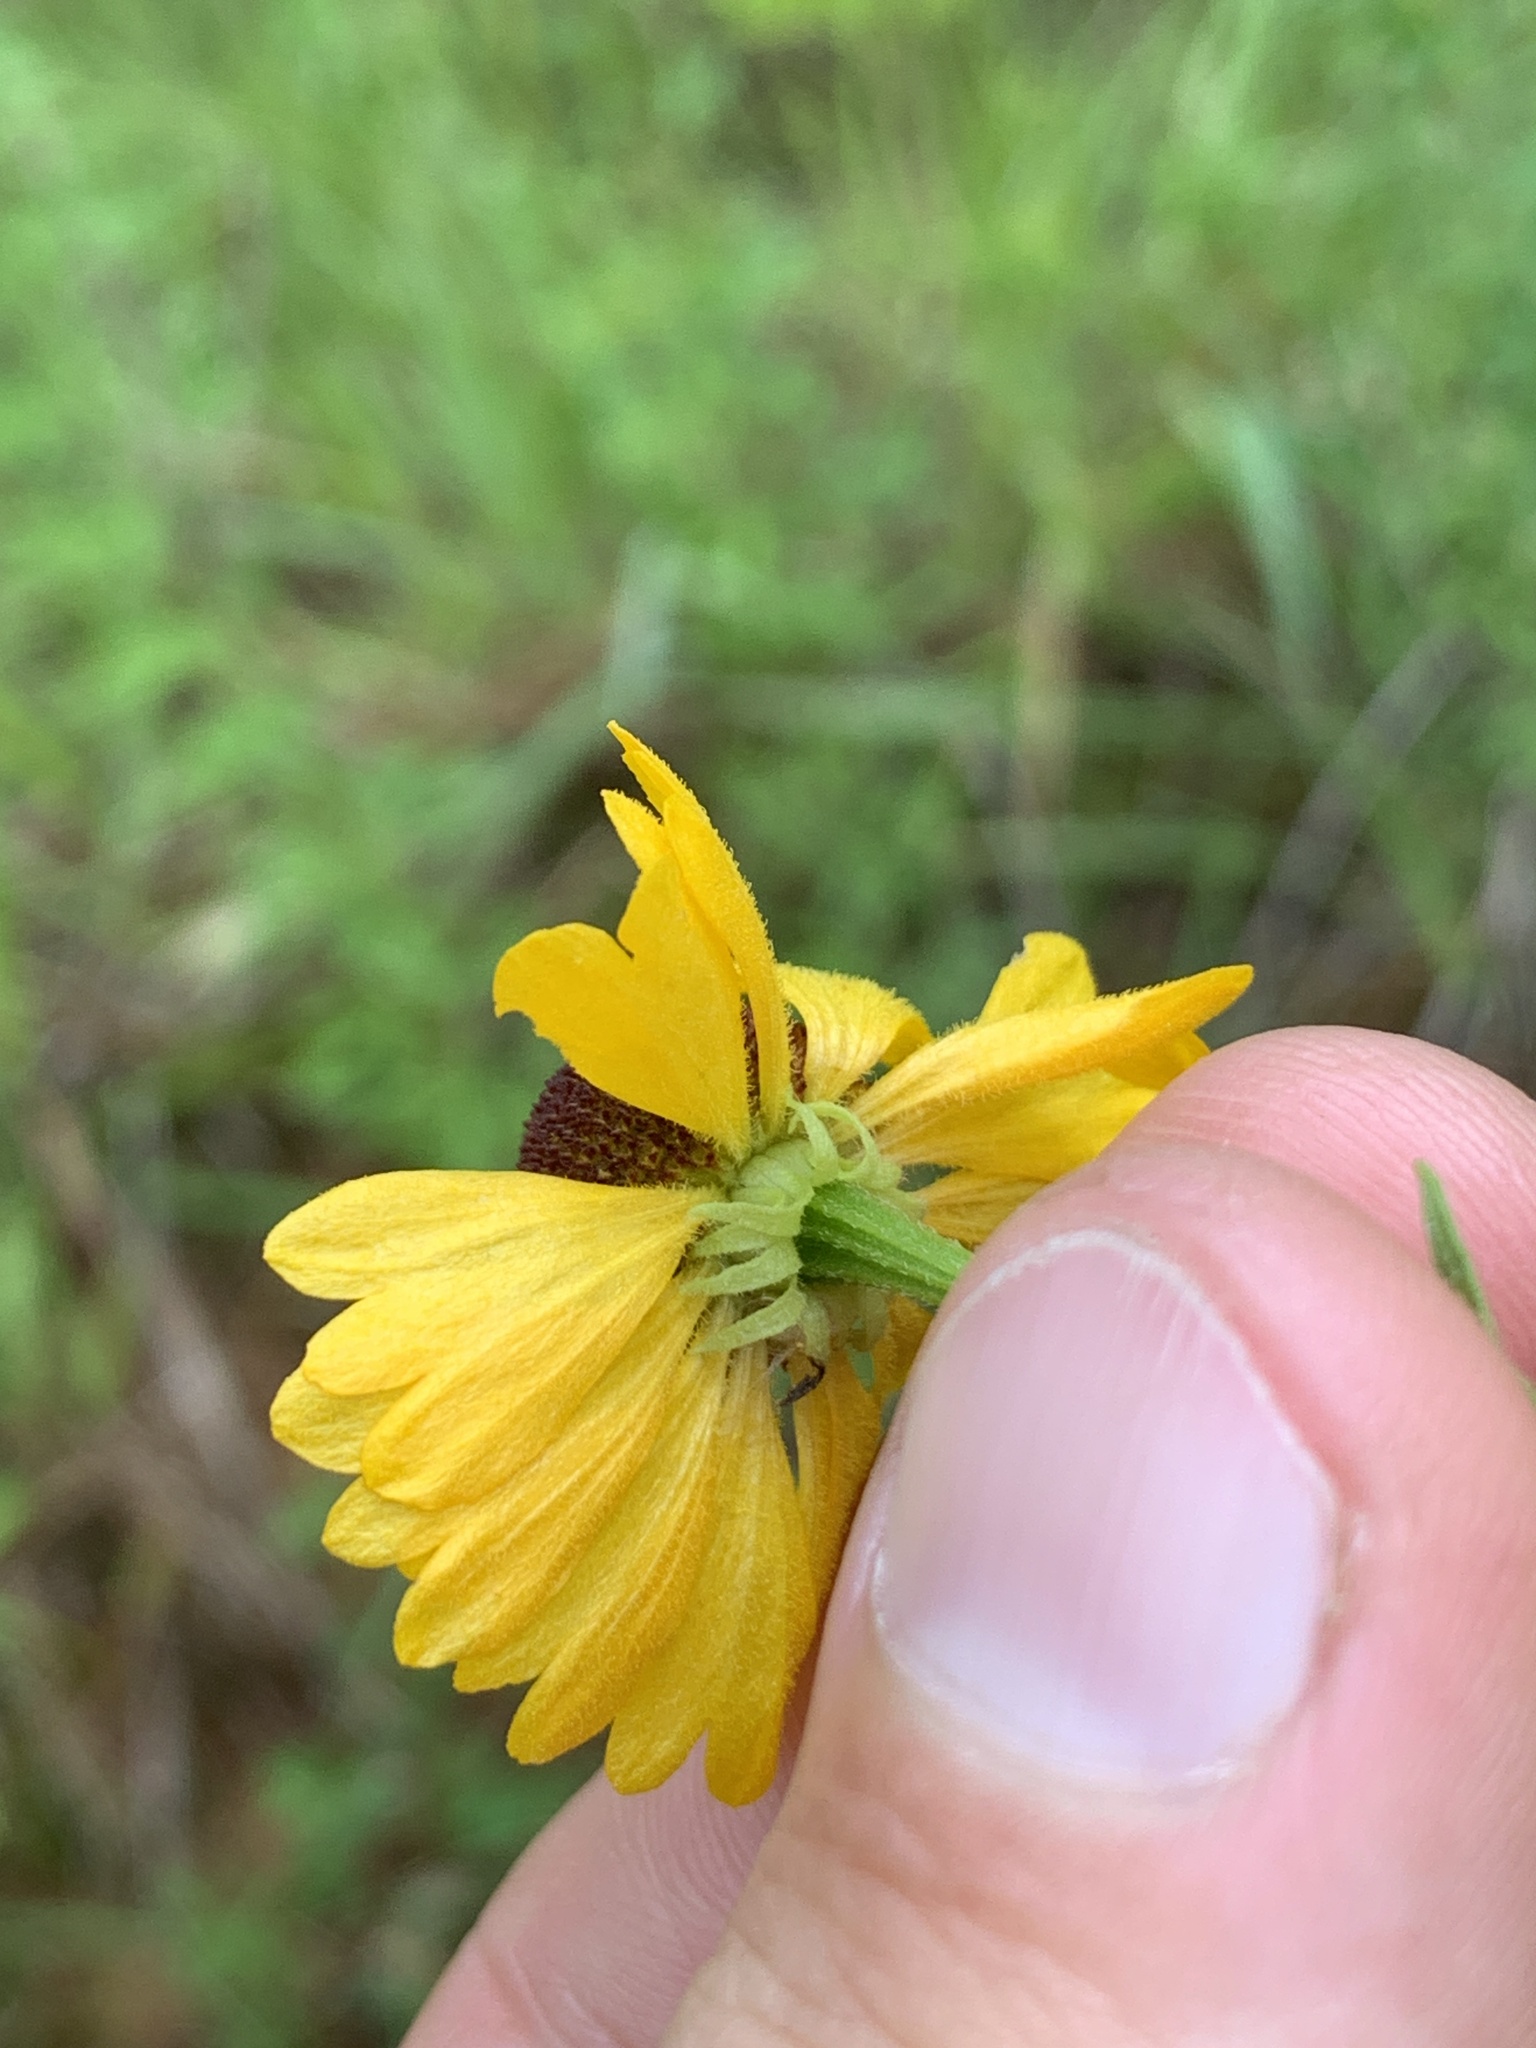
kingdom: Plantae
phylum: Tracheophyta
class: Magnoliopsida
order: Asterales
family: Asteraceae
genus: Helenium
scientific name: Helenium flexuosum
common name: Naked-flowered sneezeweed
